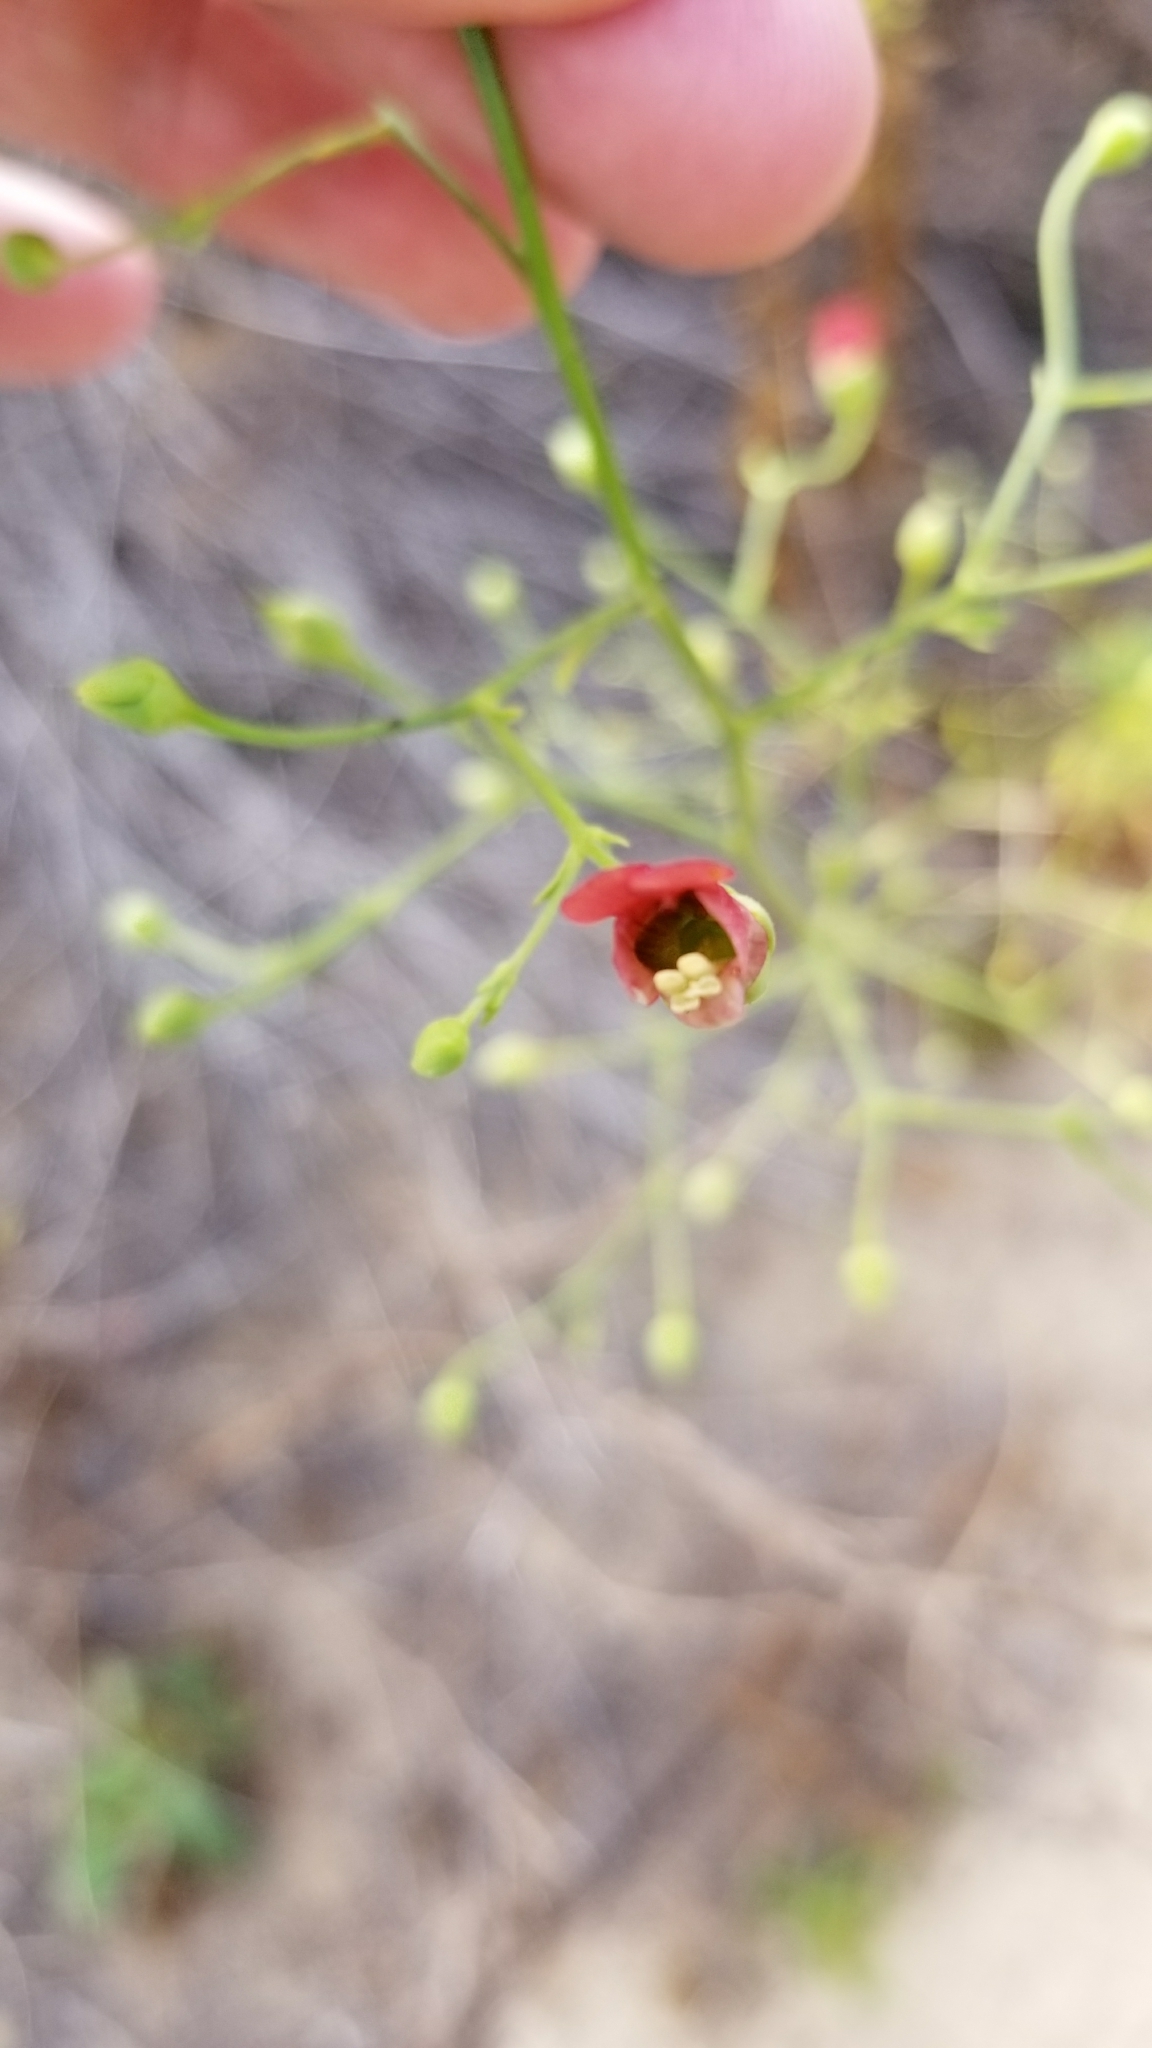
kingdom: Plantae
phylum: Tracheophyta
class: Magnoliopsida
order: Lamiales
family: Scrophulariaceae
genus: Scrophularia
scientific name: Scrophularia californica
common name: California figwort
